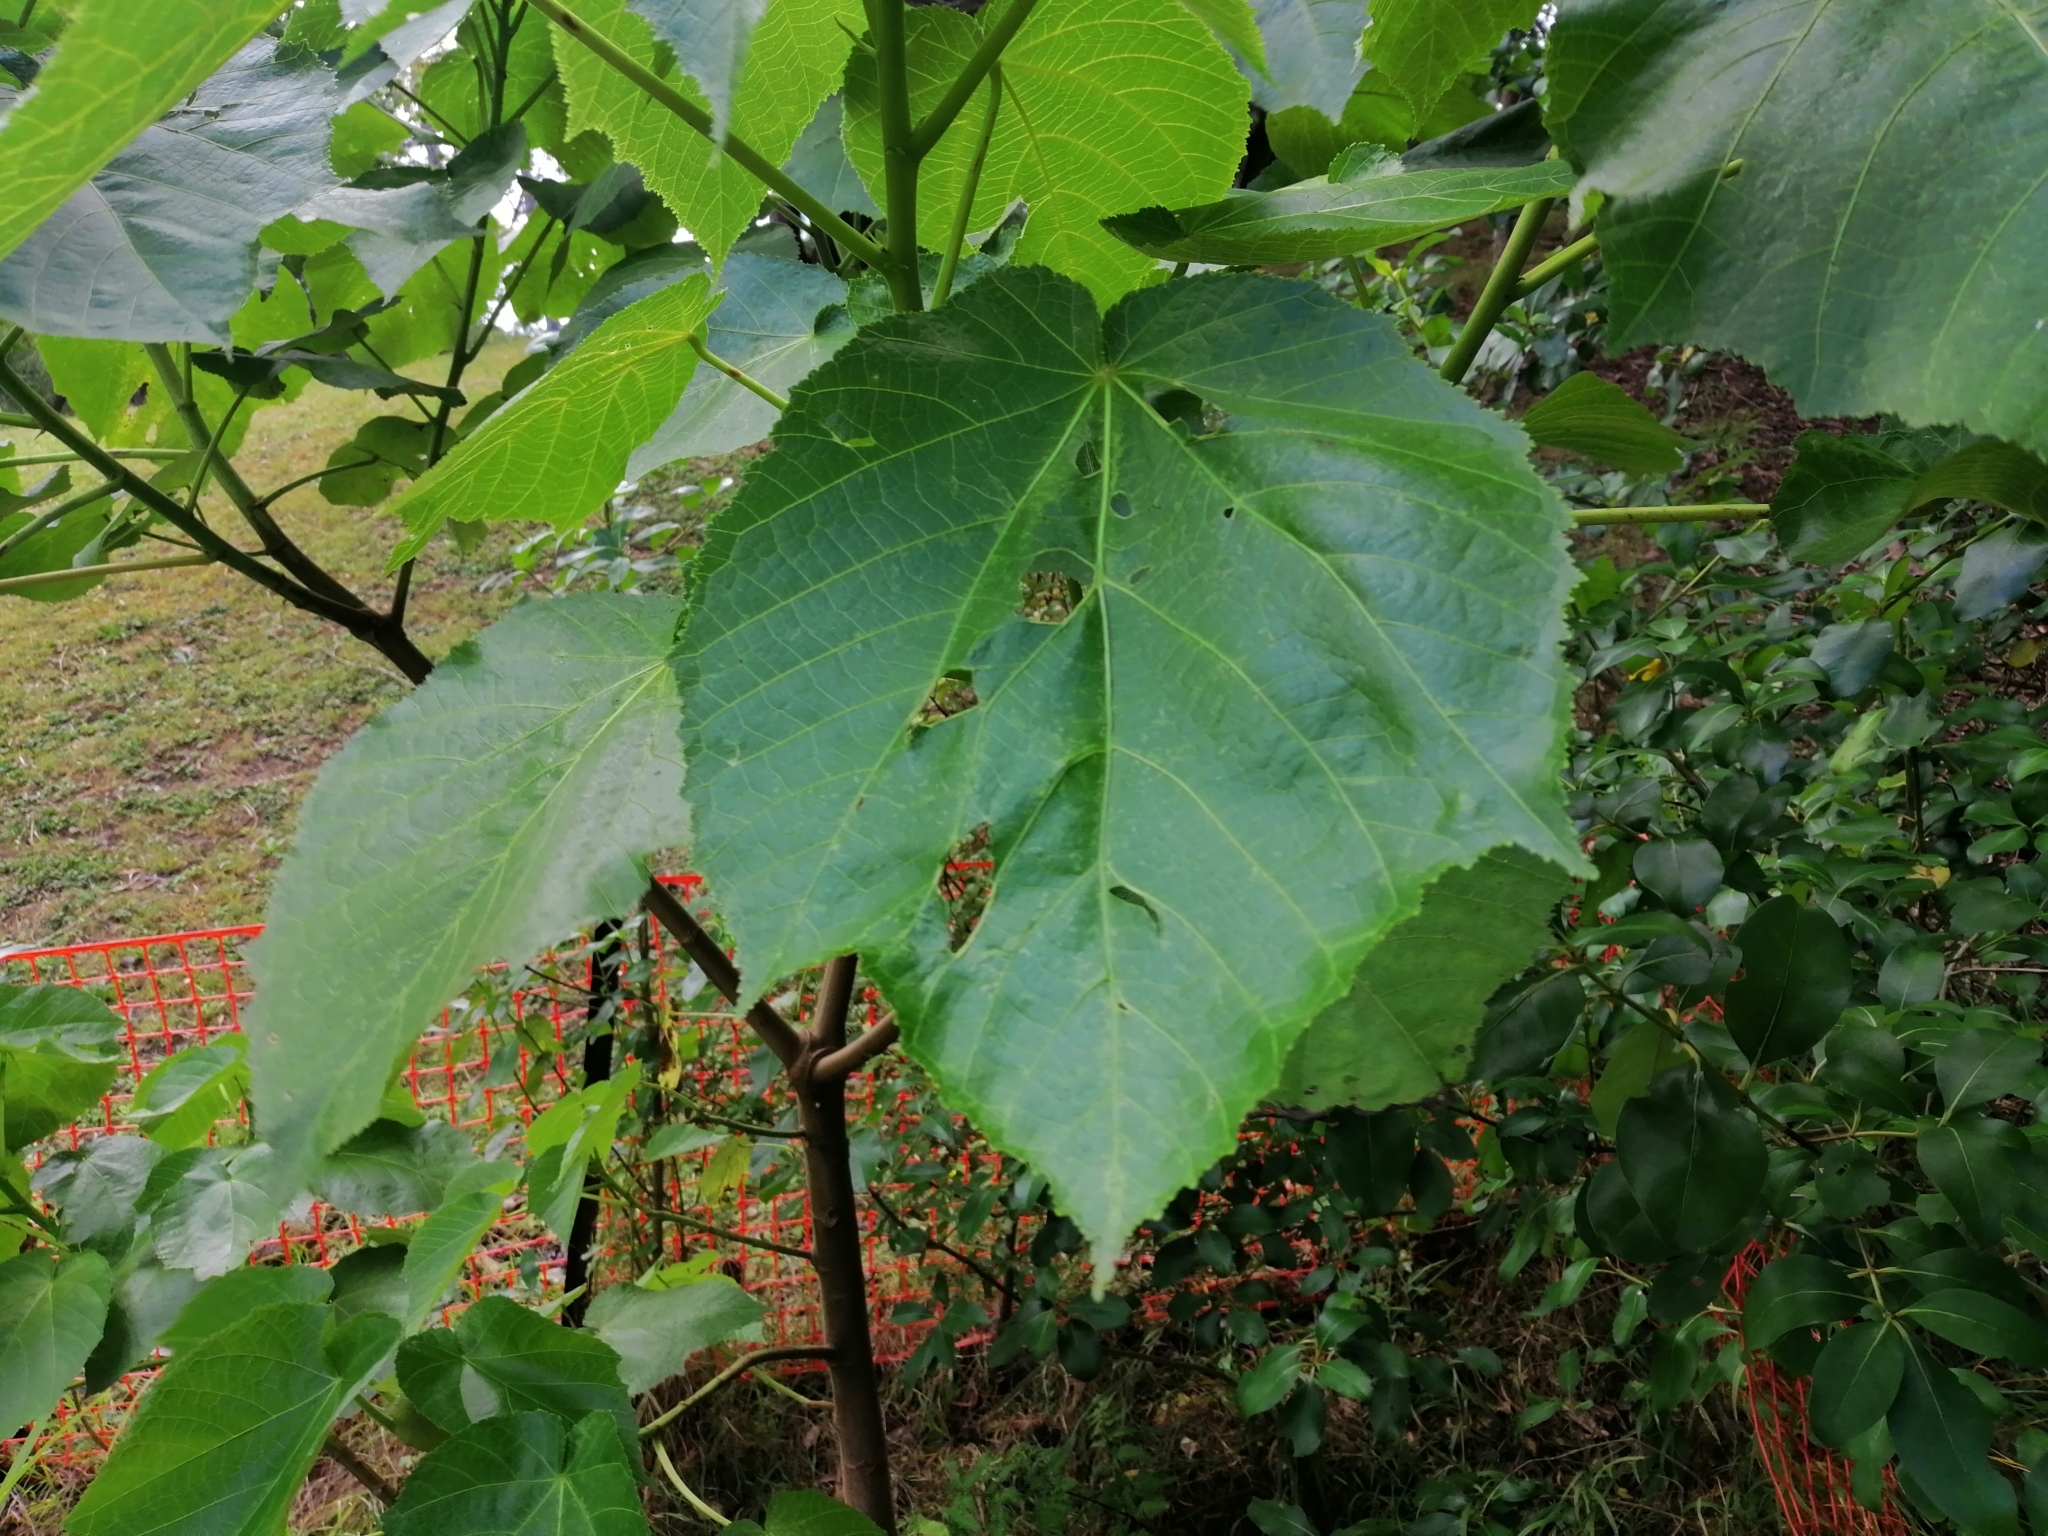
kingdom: Plantae
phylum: Tracheophyta
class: Magnoliopsida
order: Malvales
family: Malvaceae
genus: Entelea
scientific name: Entelea arborescens
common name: New zealand-mulberry
